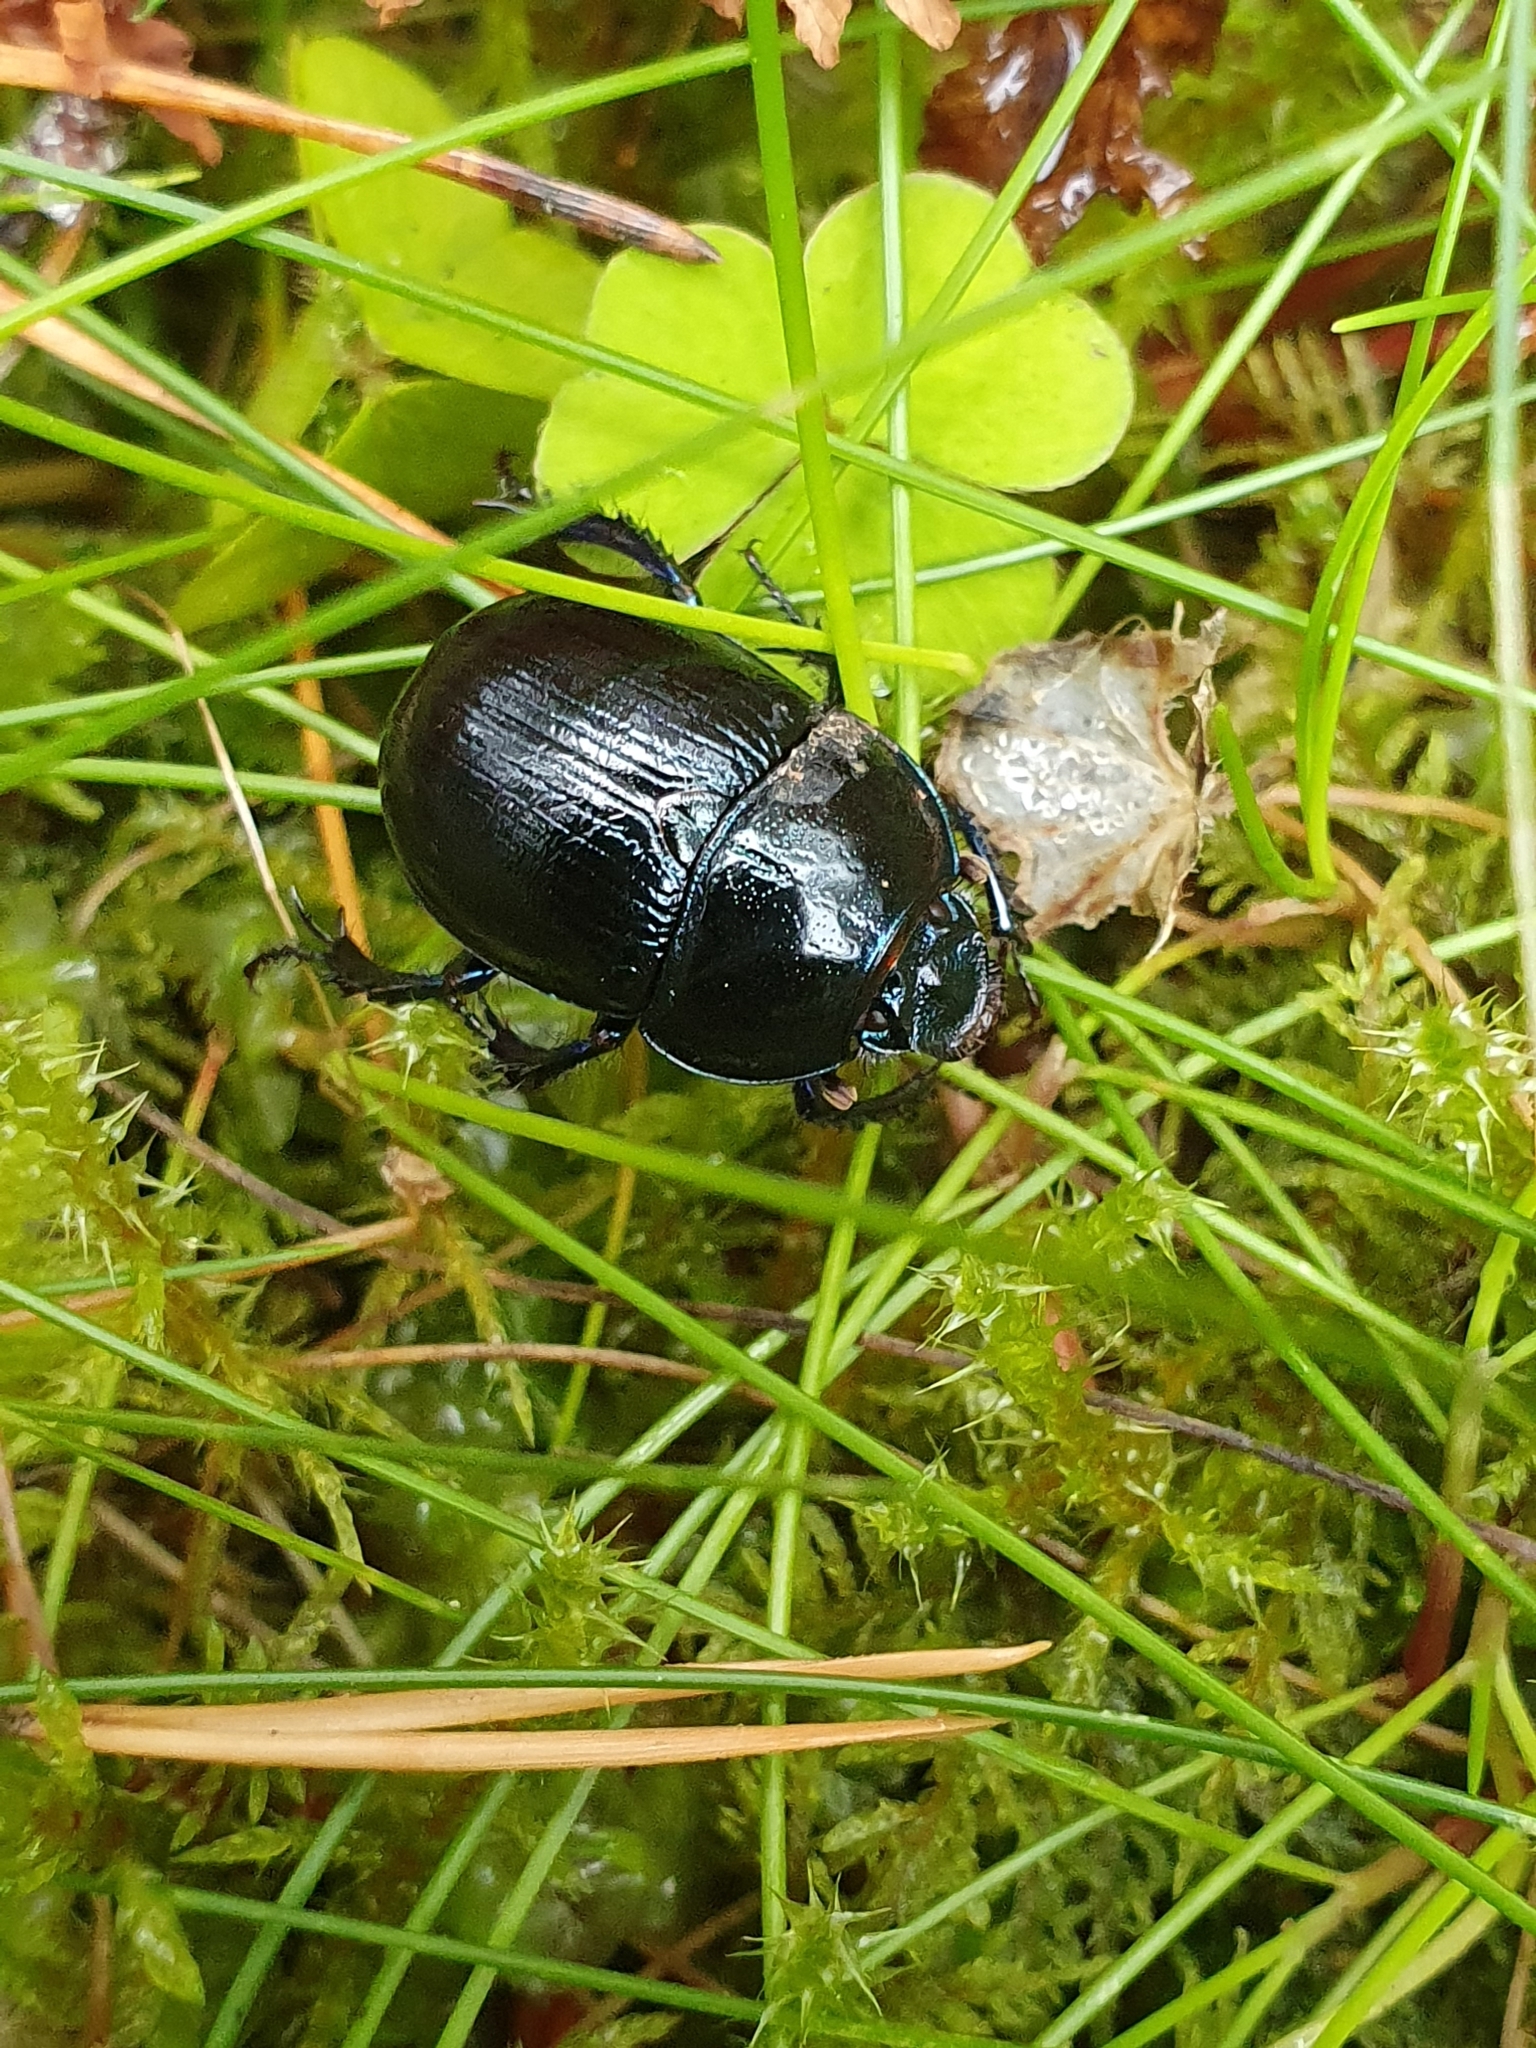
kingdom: Animalia
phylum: Arthropoda
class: Insecta
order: Coleoptera
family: Geotrupidae
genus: Anoplotrupes
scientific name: Anoplotrupes stercorosus
